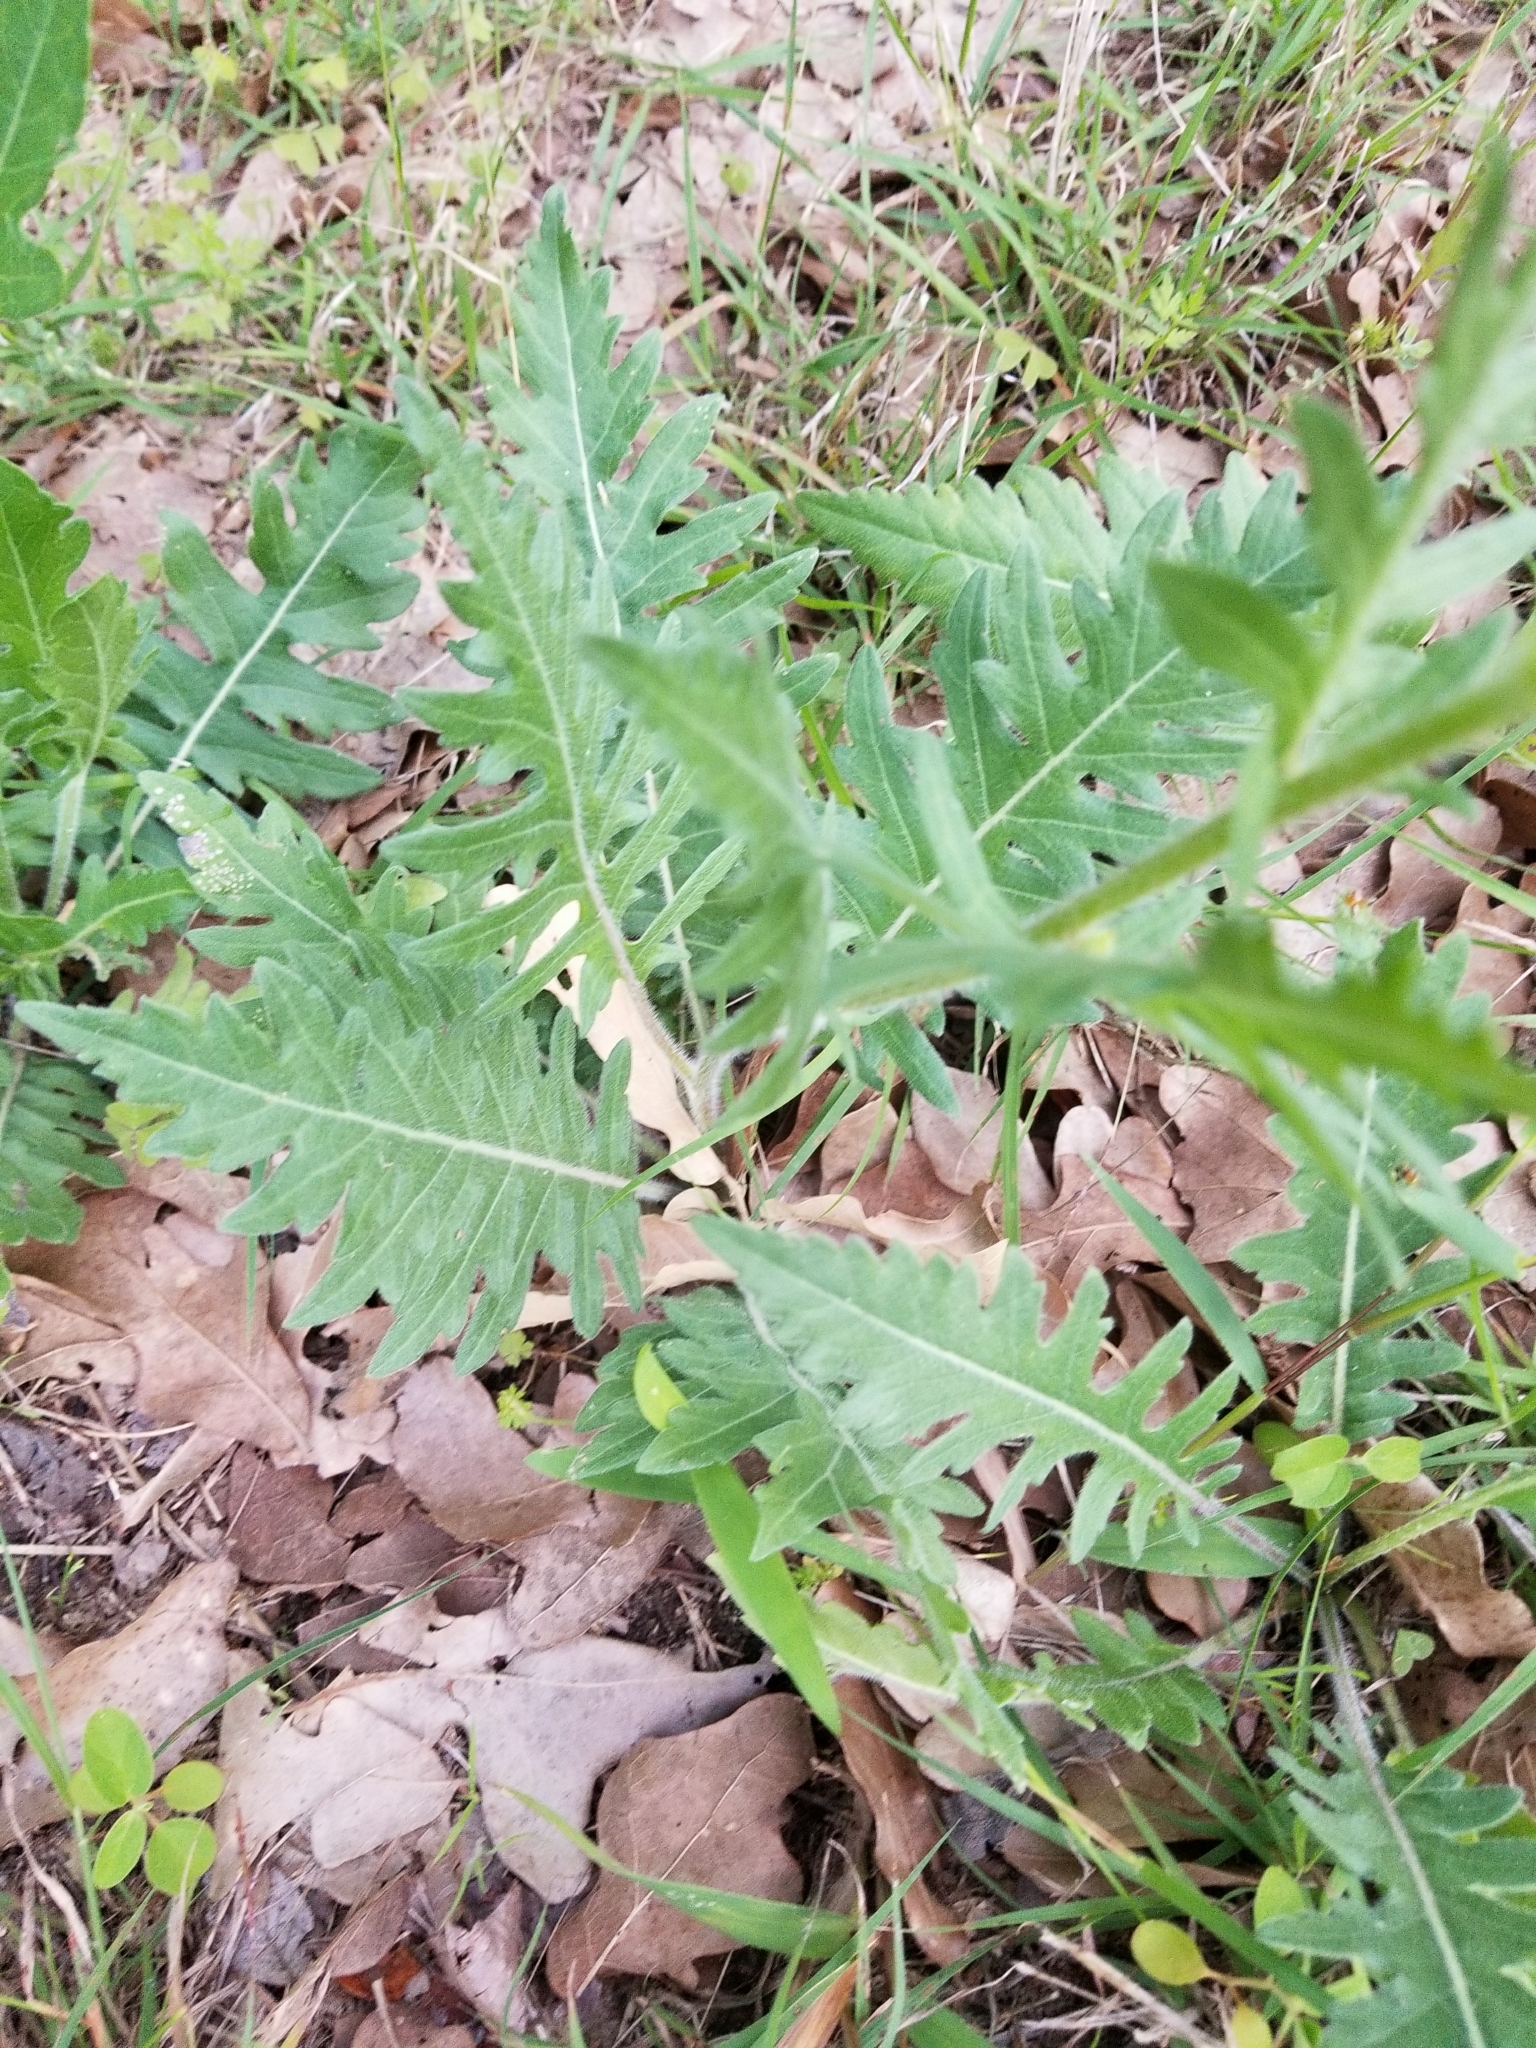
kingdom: Plantae
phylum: Tracheophyta
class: Magnoliopsida
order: Asterales
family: Asteraceae
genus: Engelmannia
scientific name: Engelmannia peristenia
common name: Engelmann's daisy
